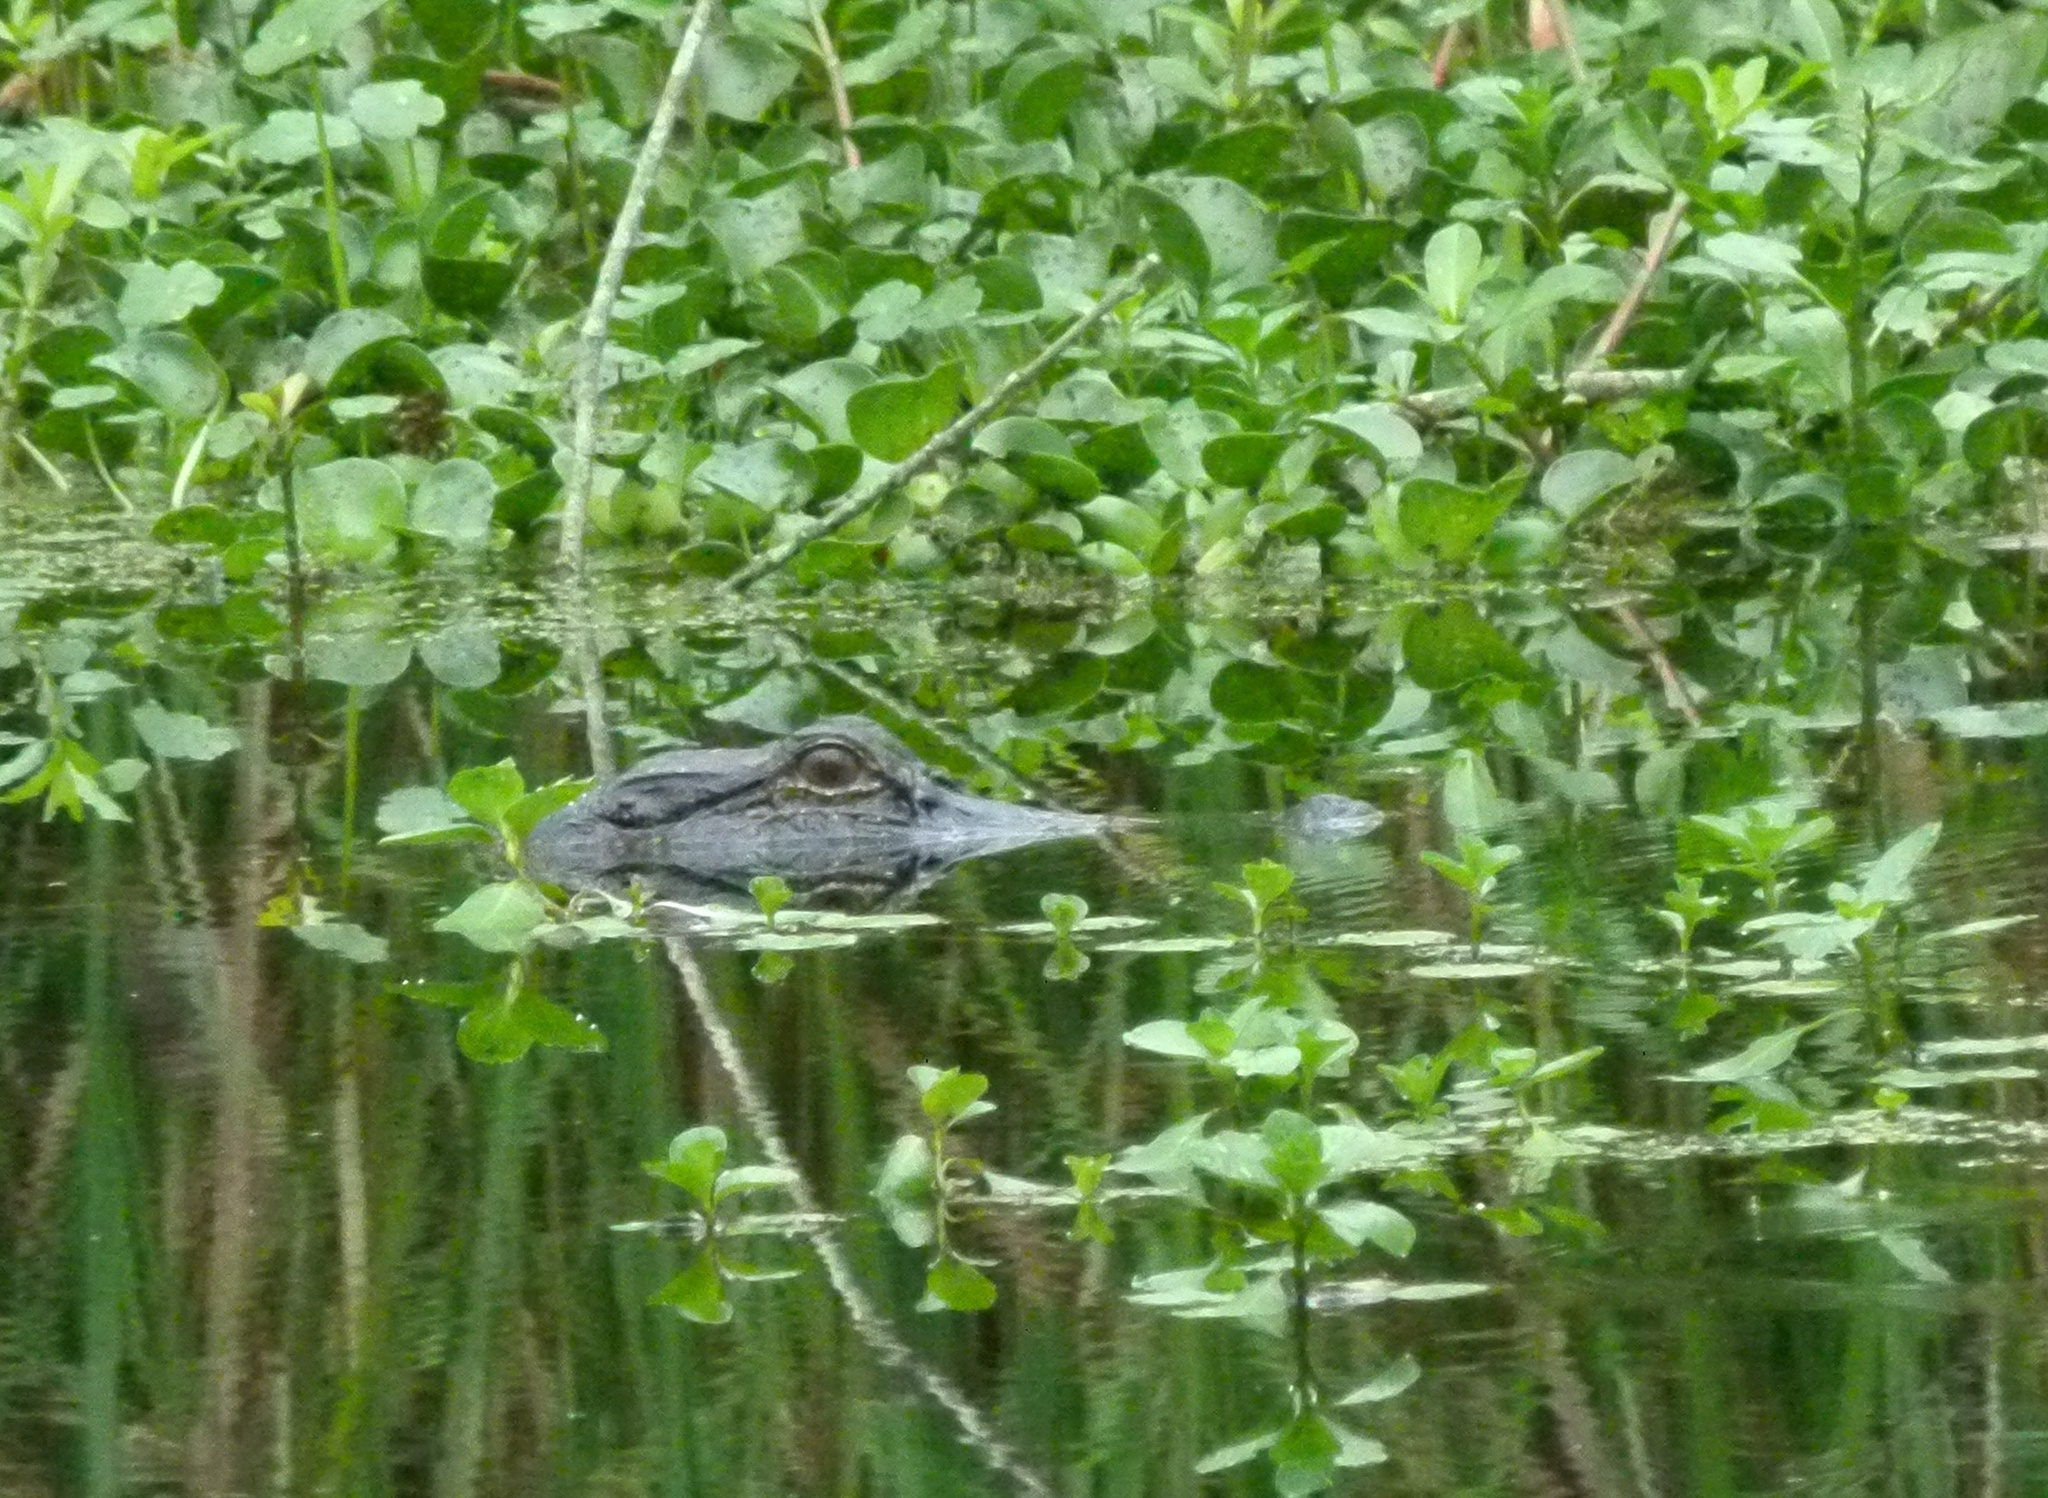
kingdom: Animalia
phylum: Chordata
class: Crocodylia
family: Alligatoridae
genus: Alligator
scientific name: Alligator mississippiensis
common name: American alligator
